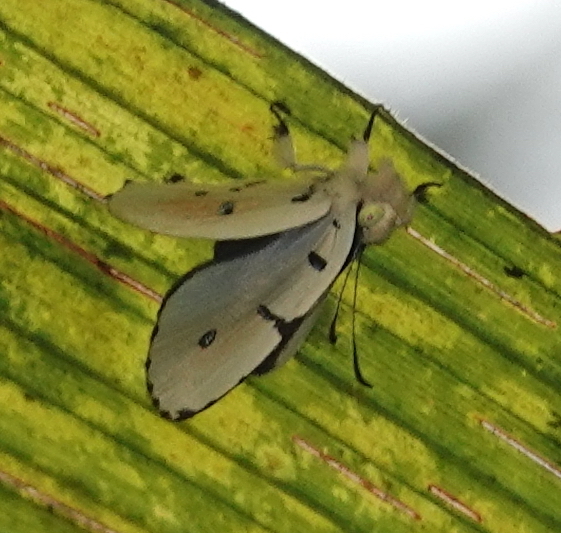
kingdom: Animalia
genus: Anteros
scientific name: Anteros allectus
